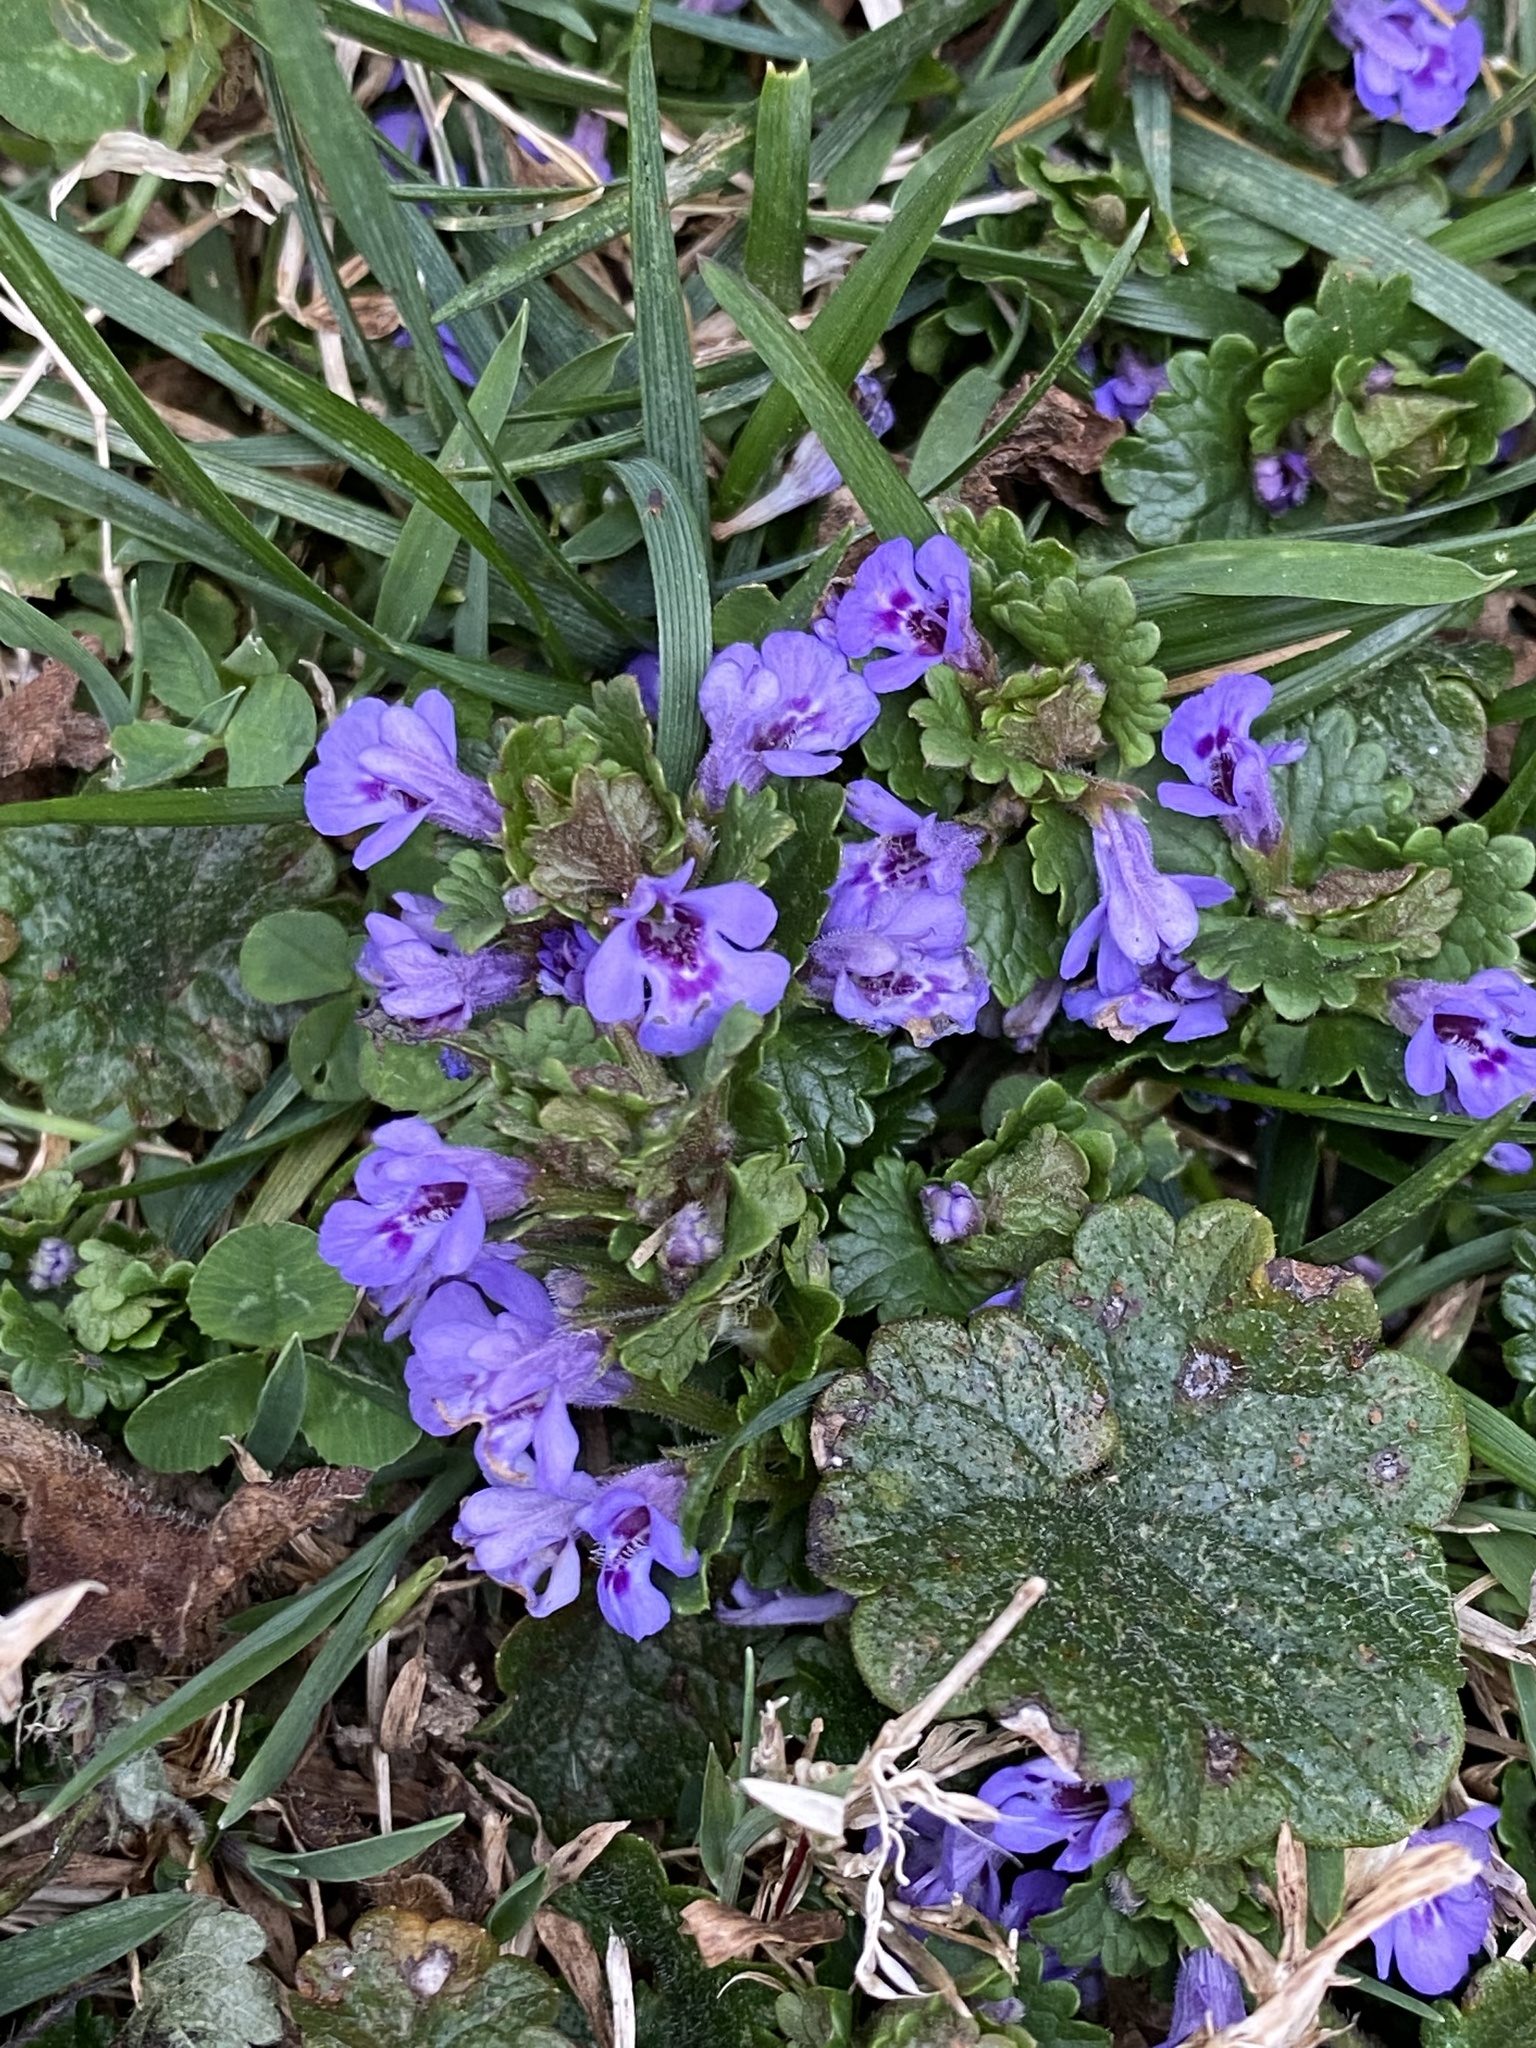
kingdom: Plantae
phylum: Tracheophyta
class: Magnoliopsida
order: Lamiales
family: Lamiaceae
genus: Glechoma
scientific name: Glechoma hederacea
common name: Ground ivy
